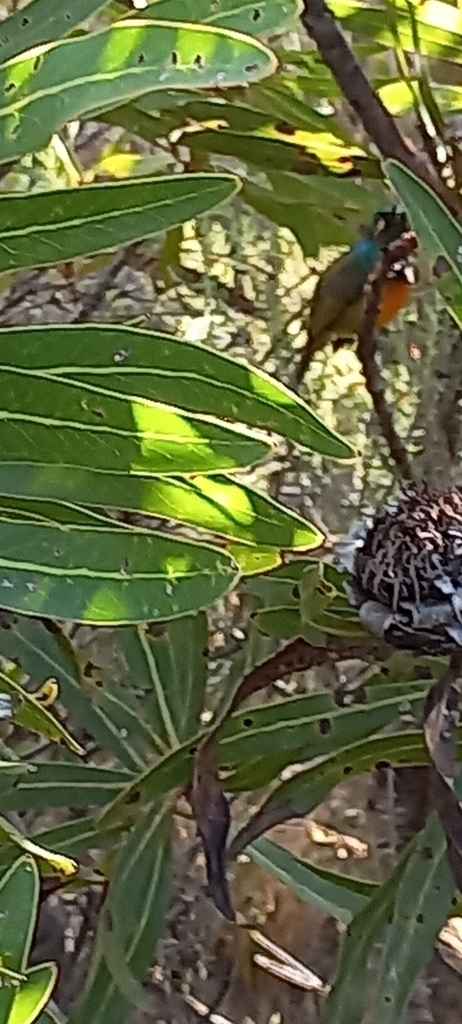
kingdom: Animalia
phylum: Chordata
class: Aves
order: Passeriformes
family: Nectariniidae
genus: Anthobaphes
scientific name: Anthobaphes violacea
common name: Orange-breasted sunbird
